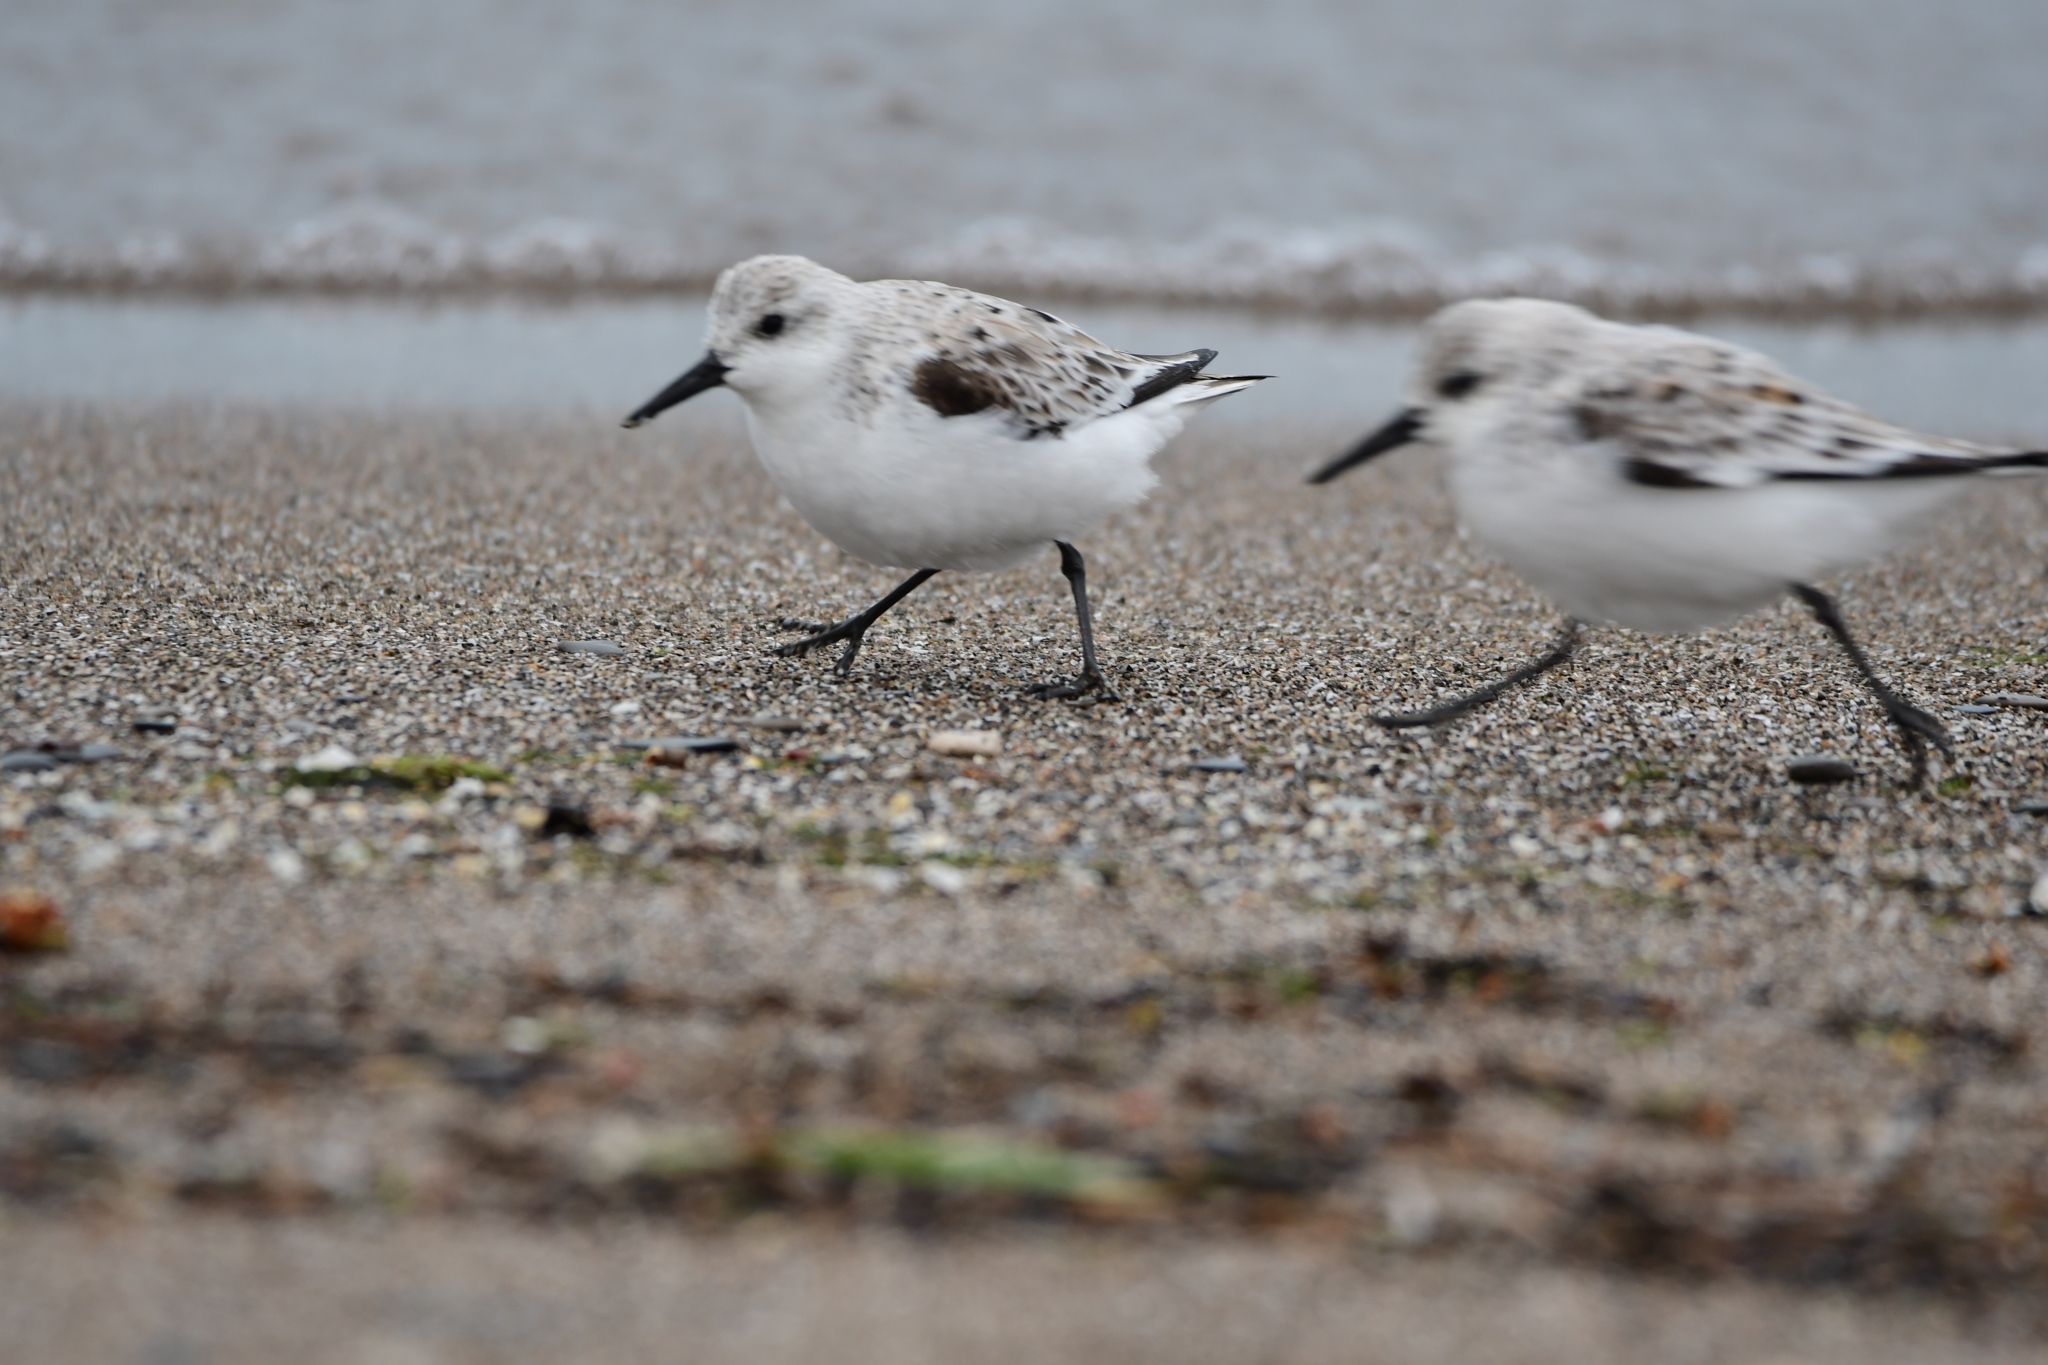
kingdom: Animalia
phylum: Chordata
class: Aves
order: Charadriiformes
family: Scolopacidae
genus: Calidris
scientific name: Calidris alba
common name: Sanderling
